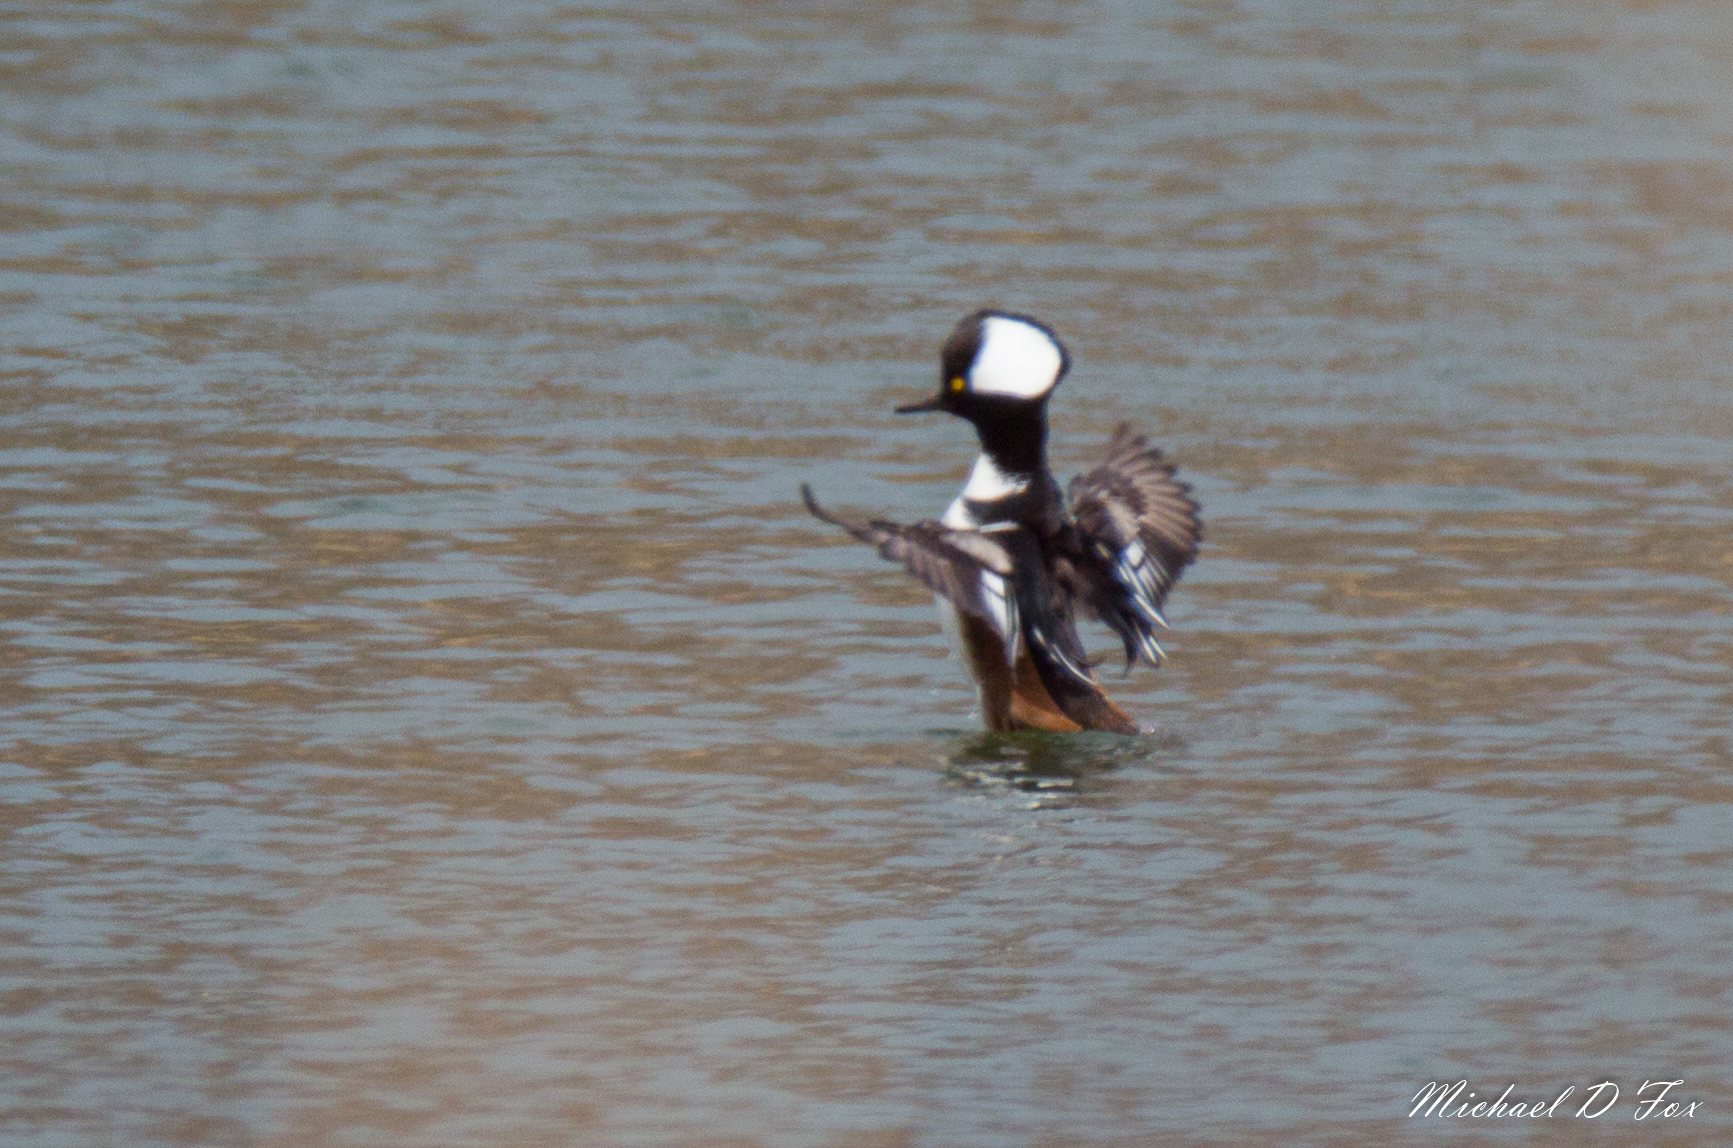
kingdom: Animalia
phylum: Chordata
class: Aves
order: Anseriformes
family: Anatidae
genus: Lophodytes
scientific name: Lophodytes cucullatus
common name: Hooded merganser
